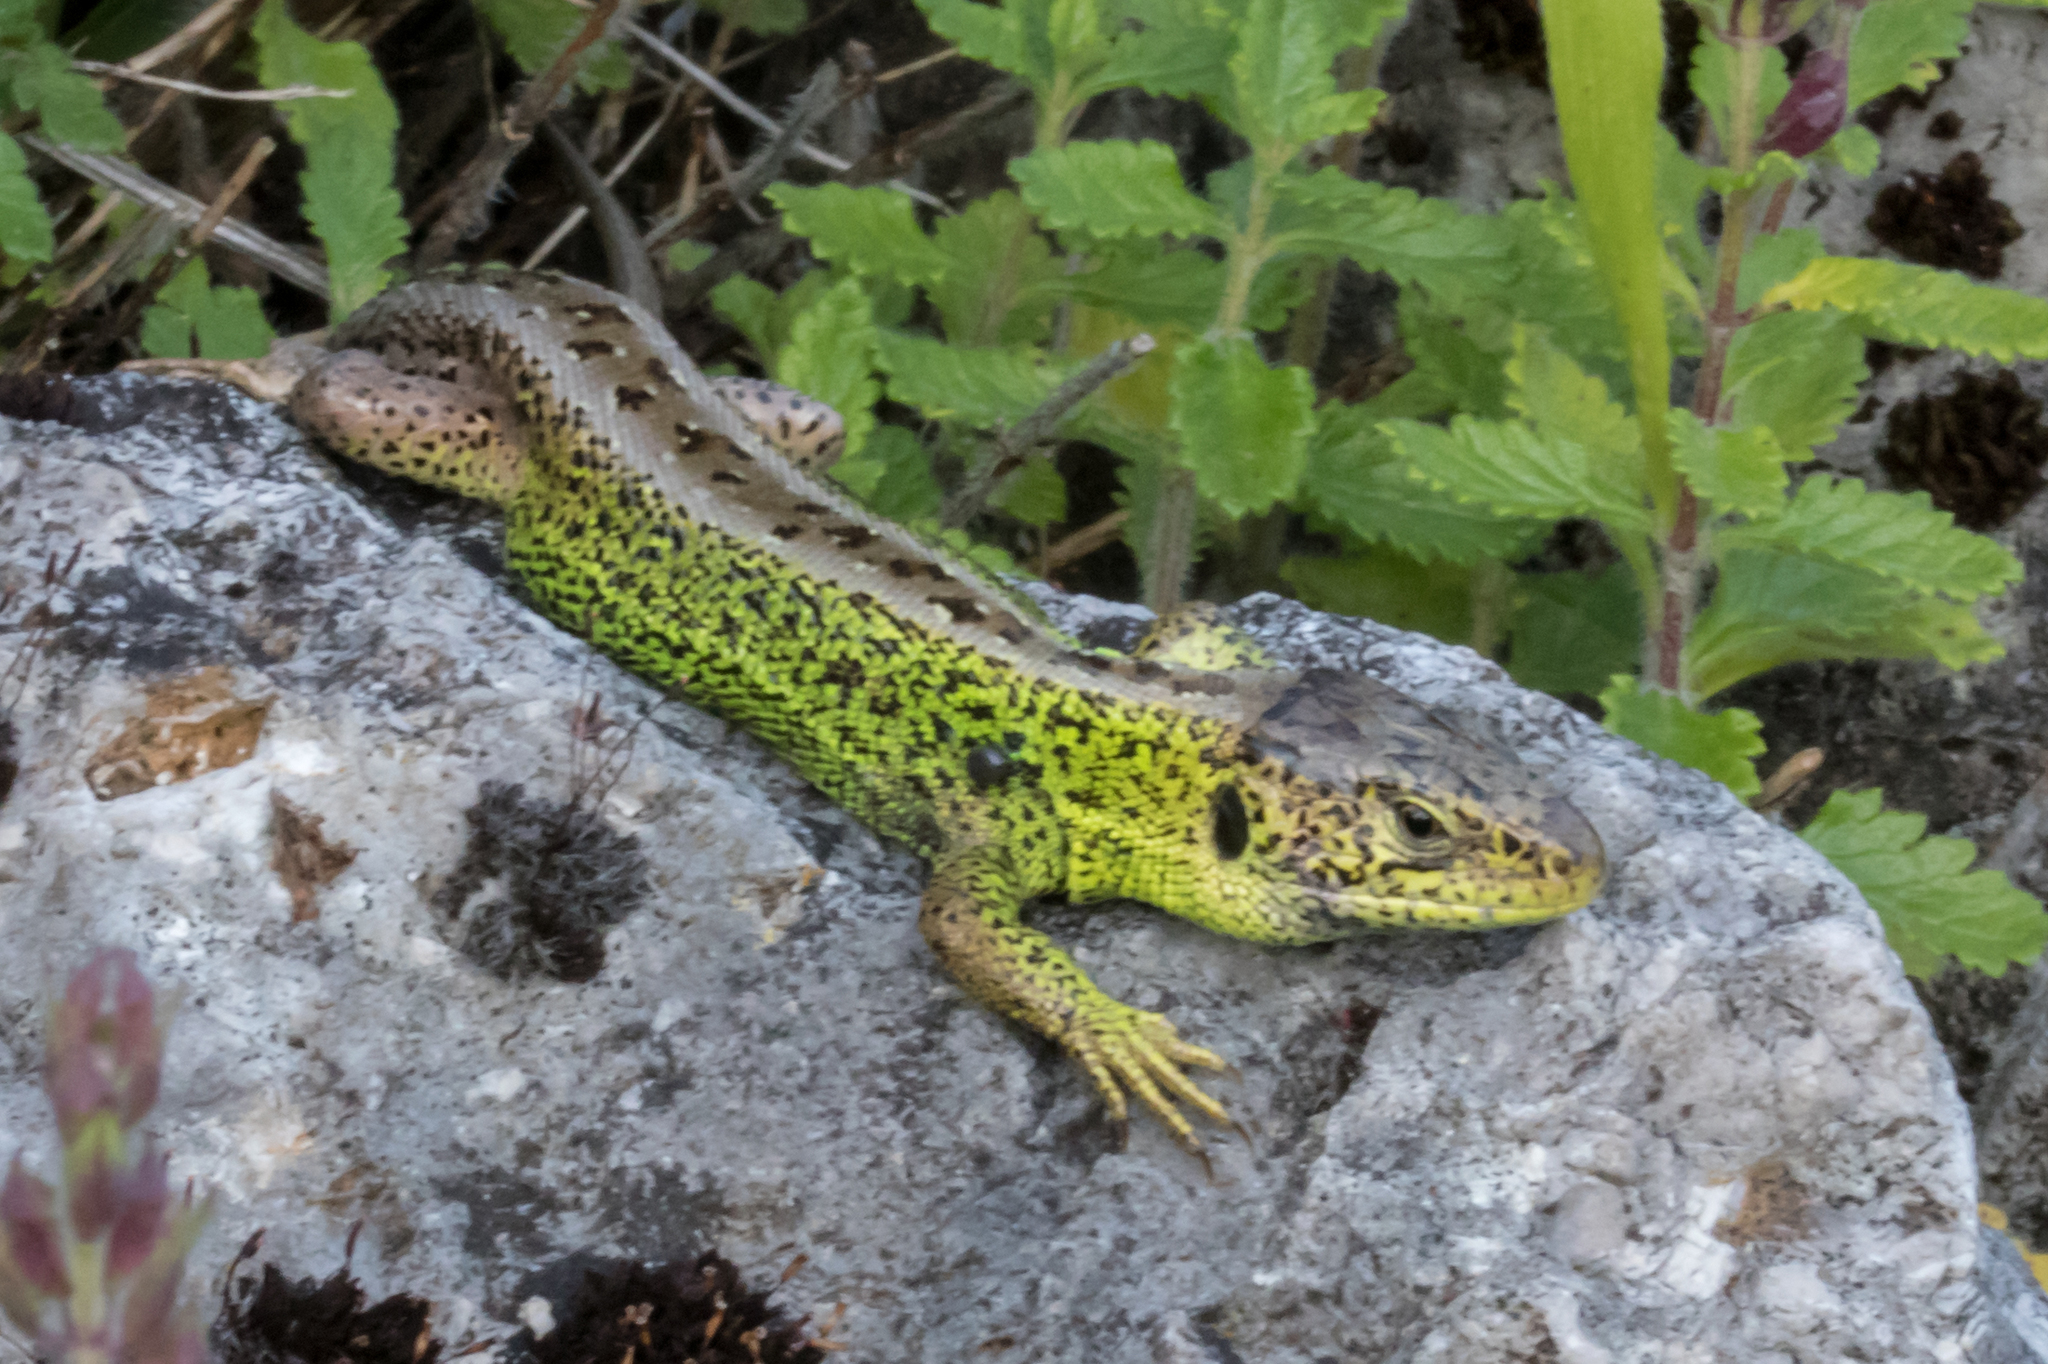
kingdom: Animalia
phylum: Chordata
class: Squamata
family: Lacertidae
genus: Lacerta
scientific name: Lacerta agilis
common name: Sand lizard
